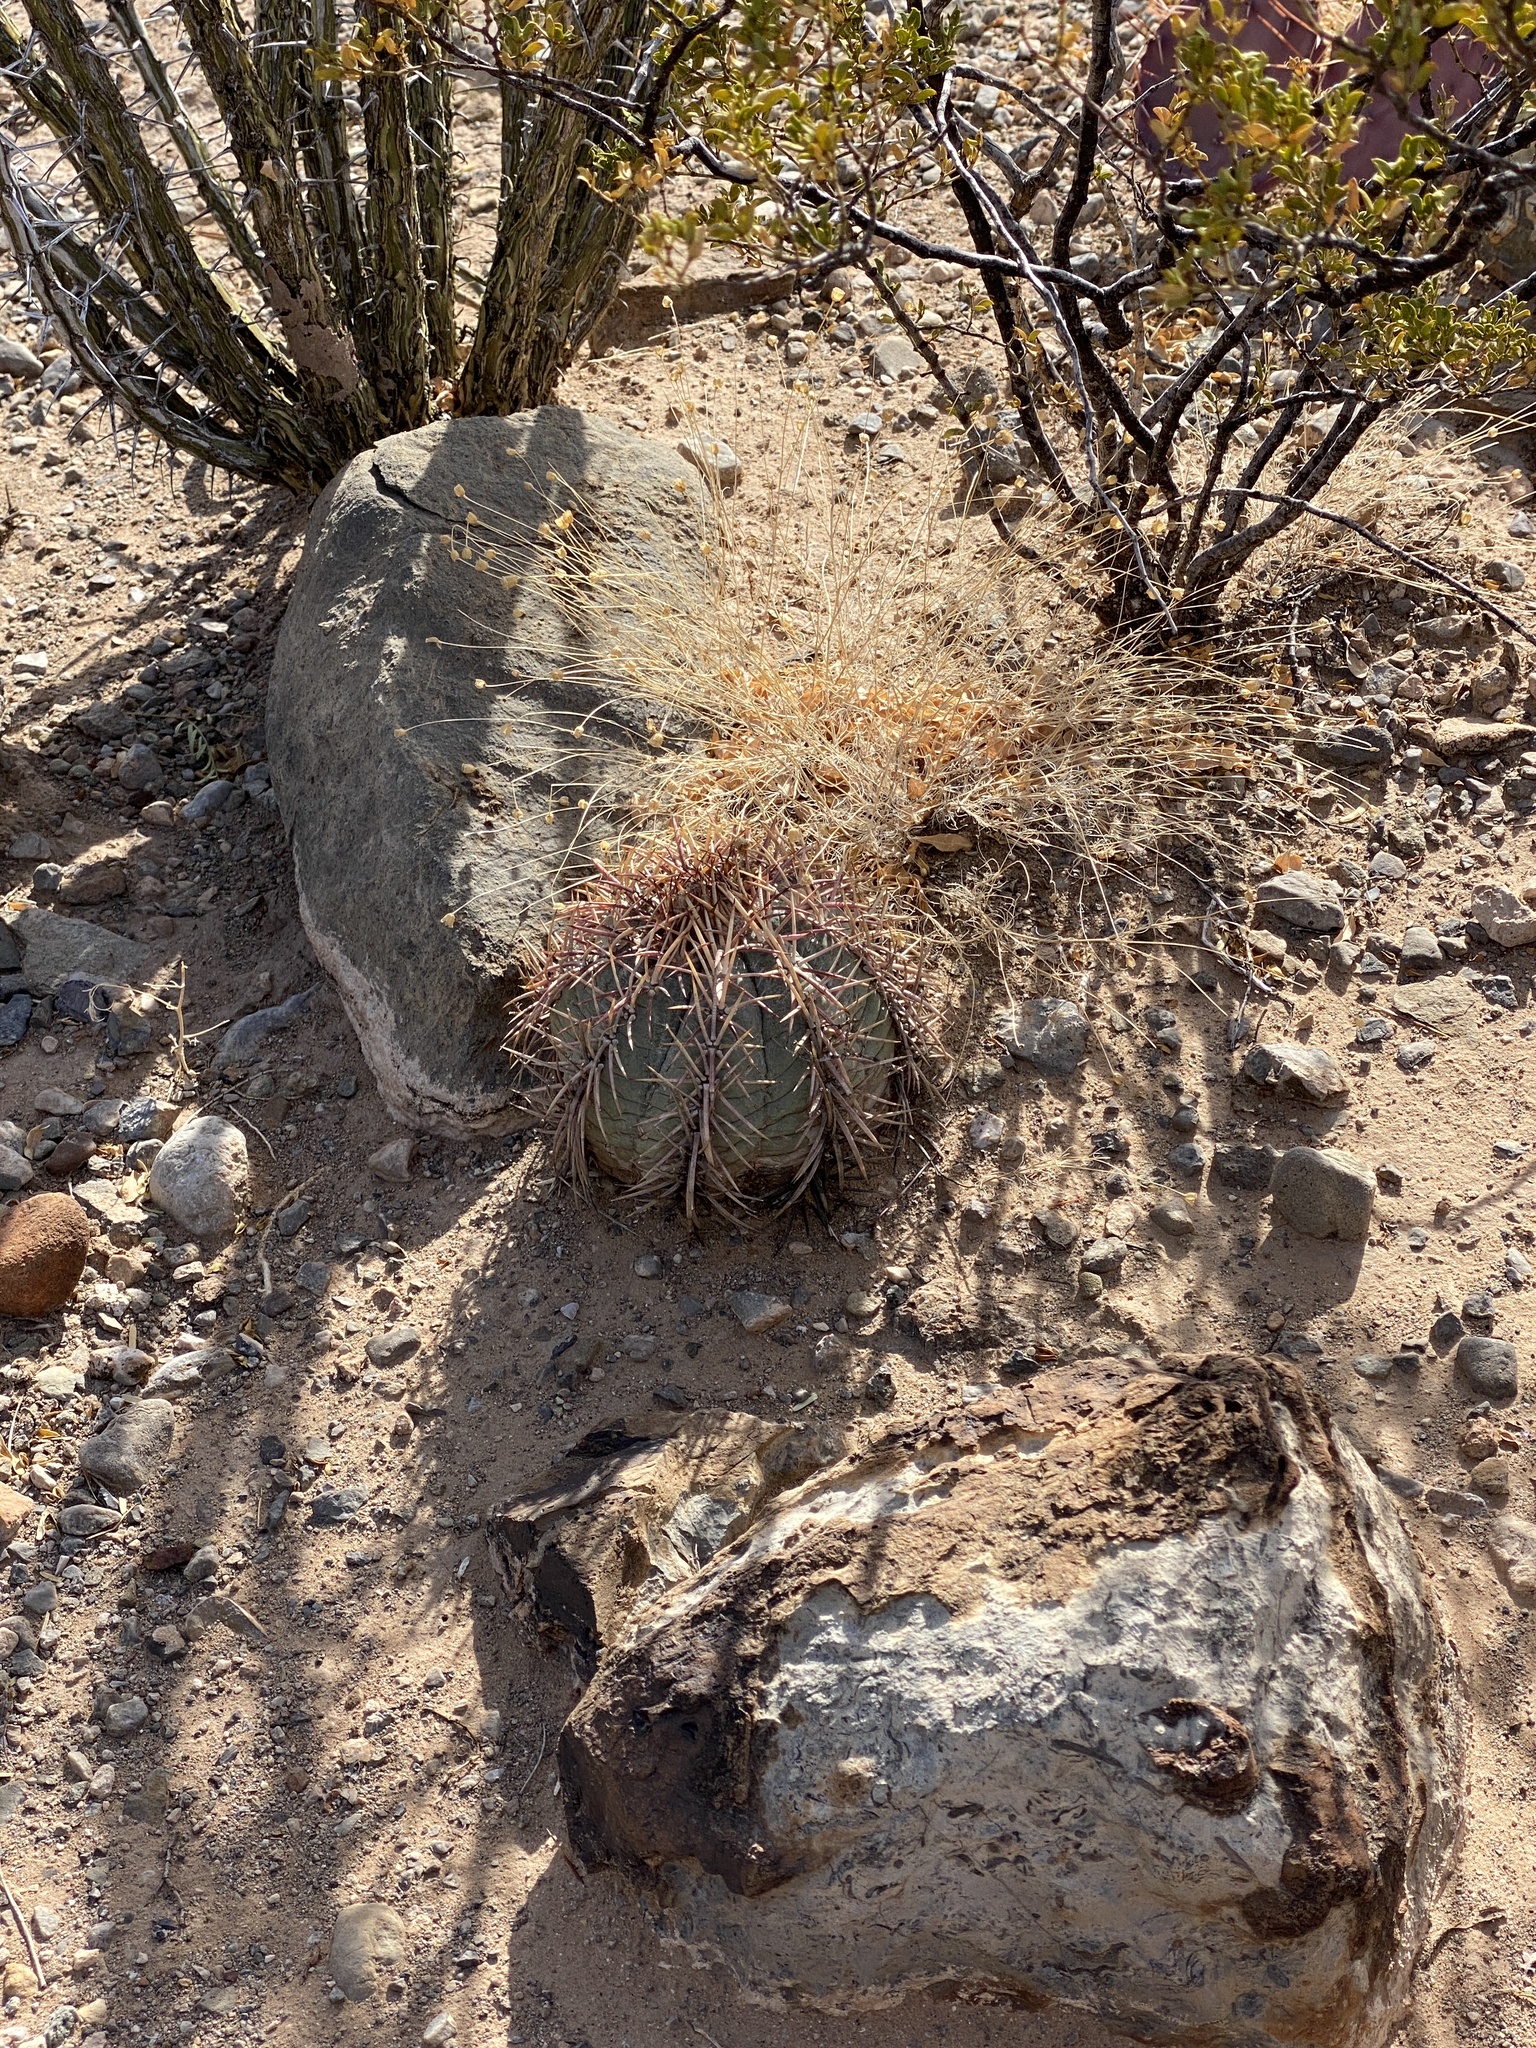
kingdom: Plantae
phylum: Tracheophyta
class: Magnoliopsida
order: Caryophyllales
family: Cactaceae
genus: Echinocactus
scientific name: Echinocactus horizonthalonius
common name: Devilshead
